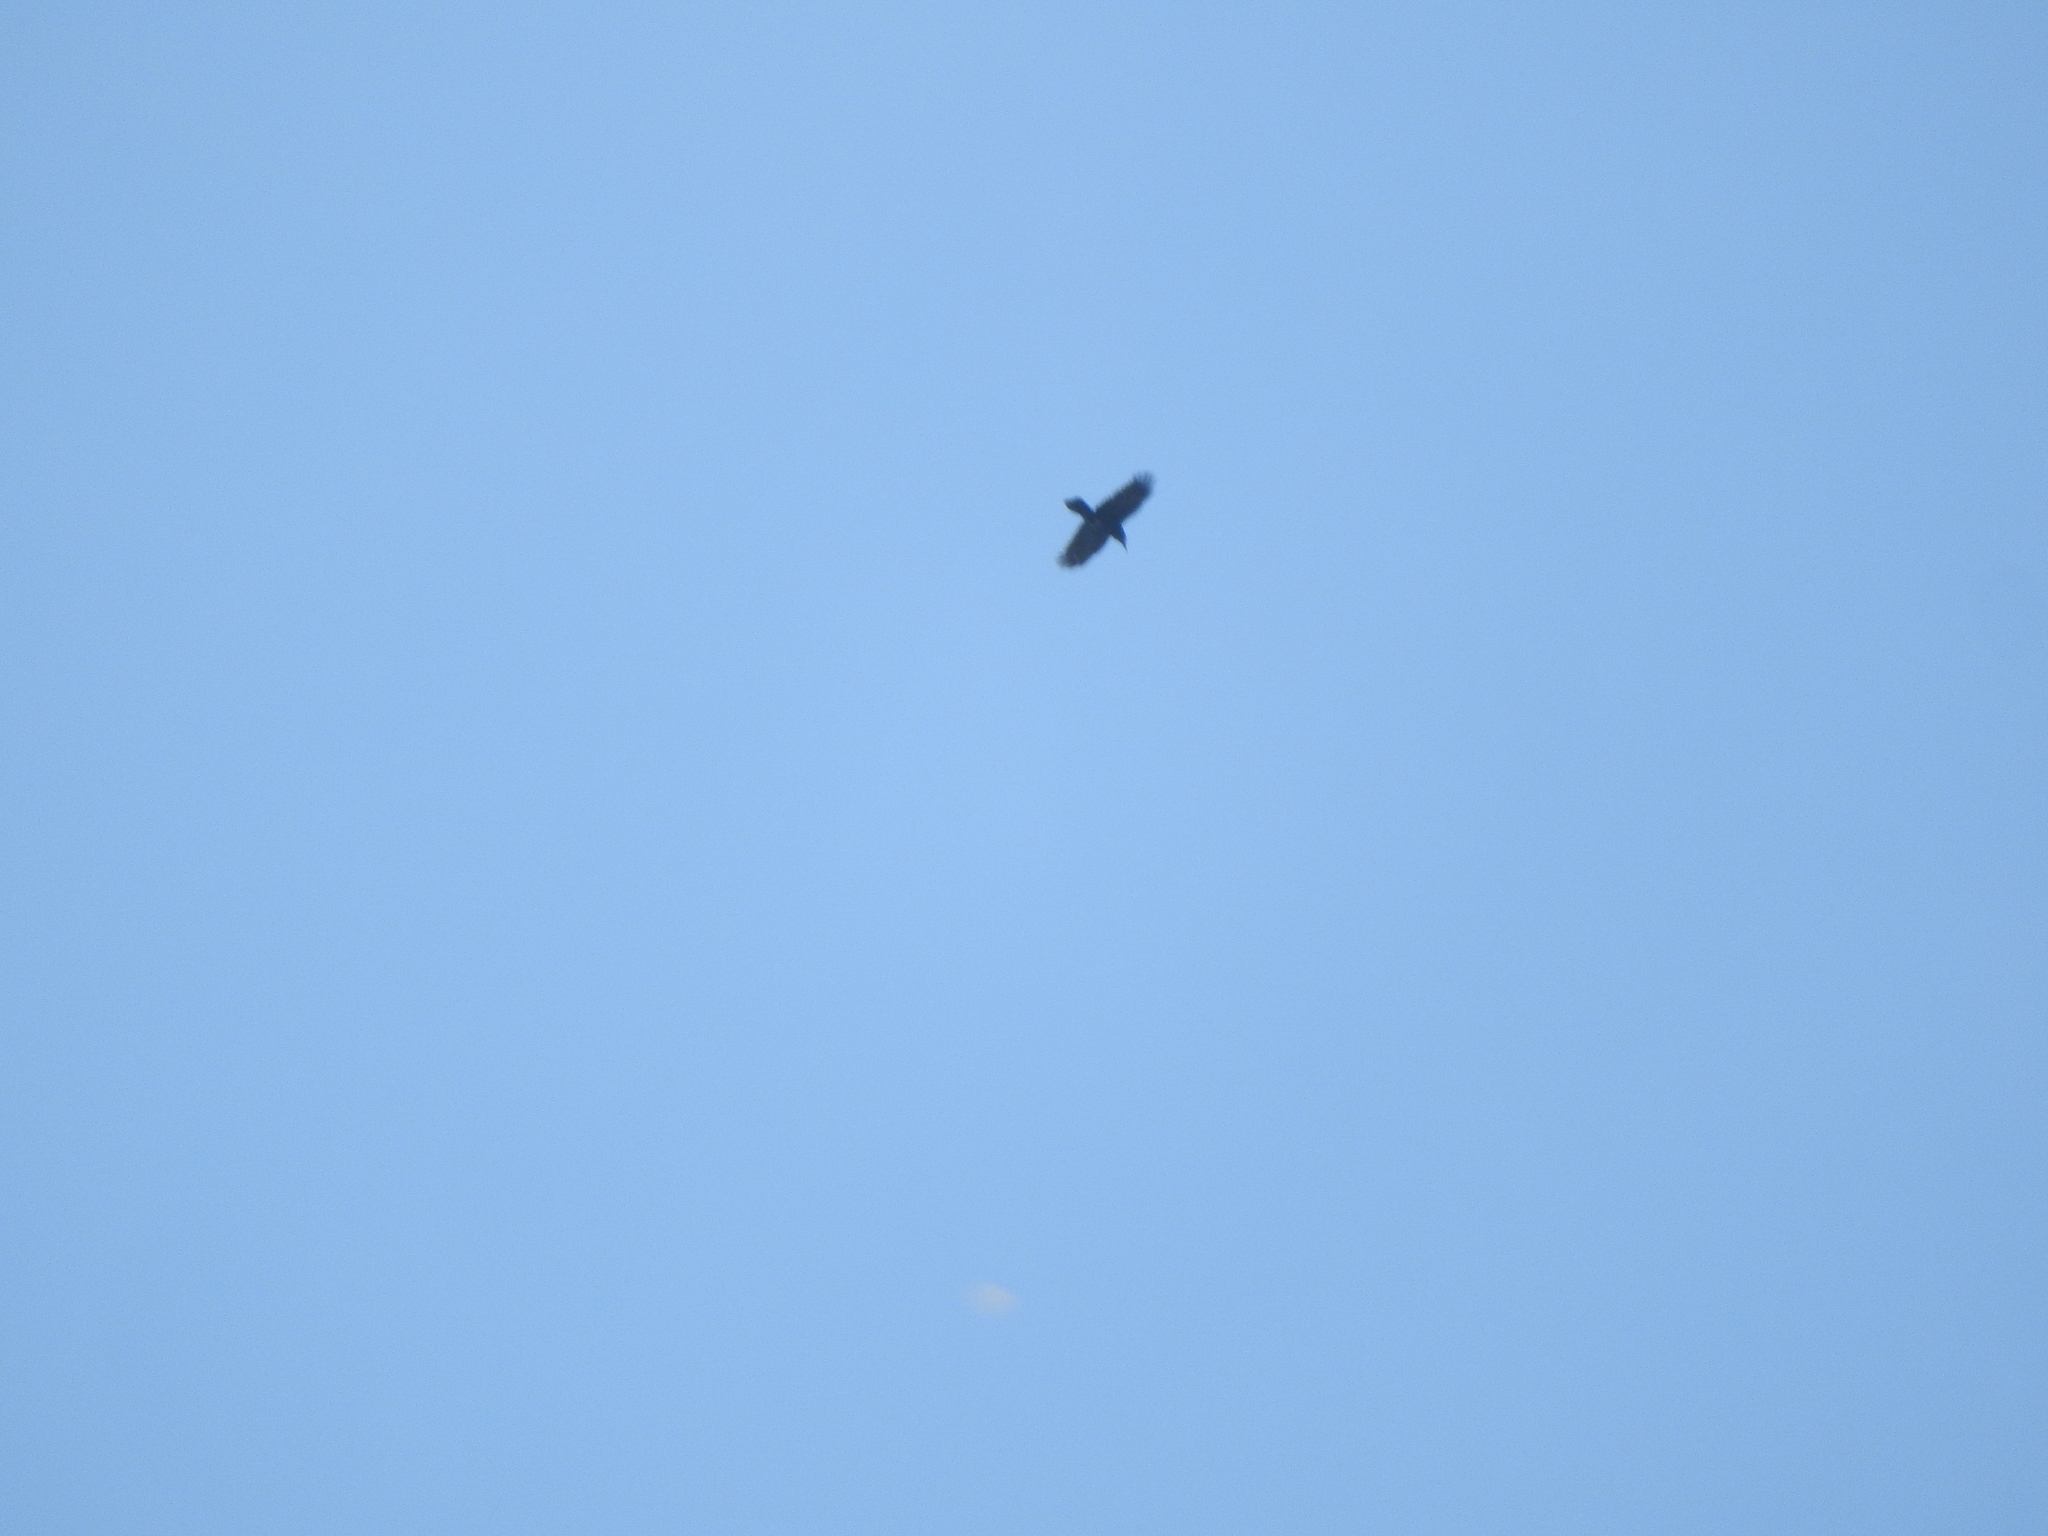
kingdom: Animalia
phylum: Chordata
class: Aves
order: Passeriformes
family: Corvidae
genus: Corvus
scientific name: Corvus corax
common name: Common raven
